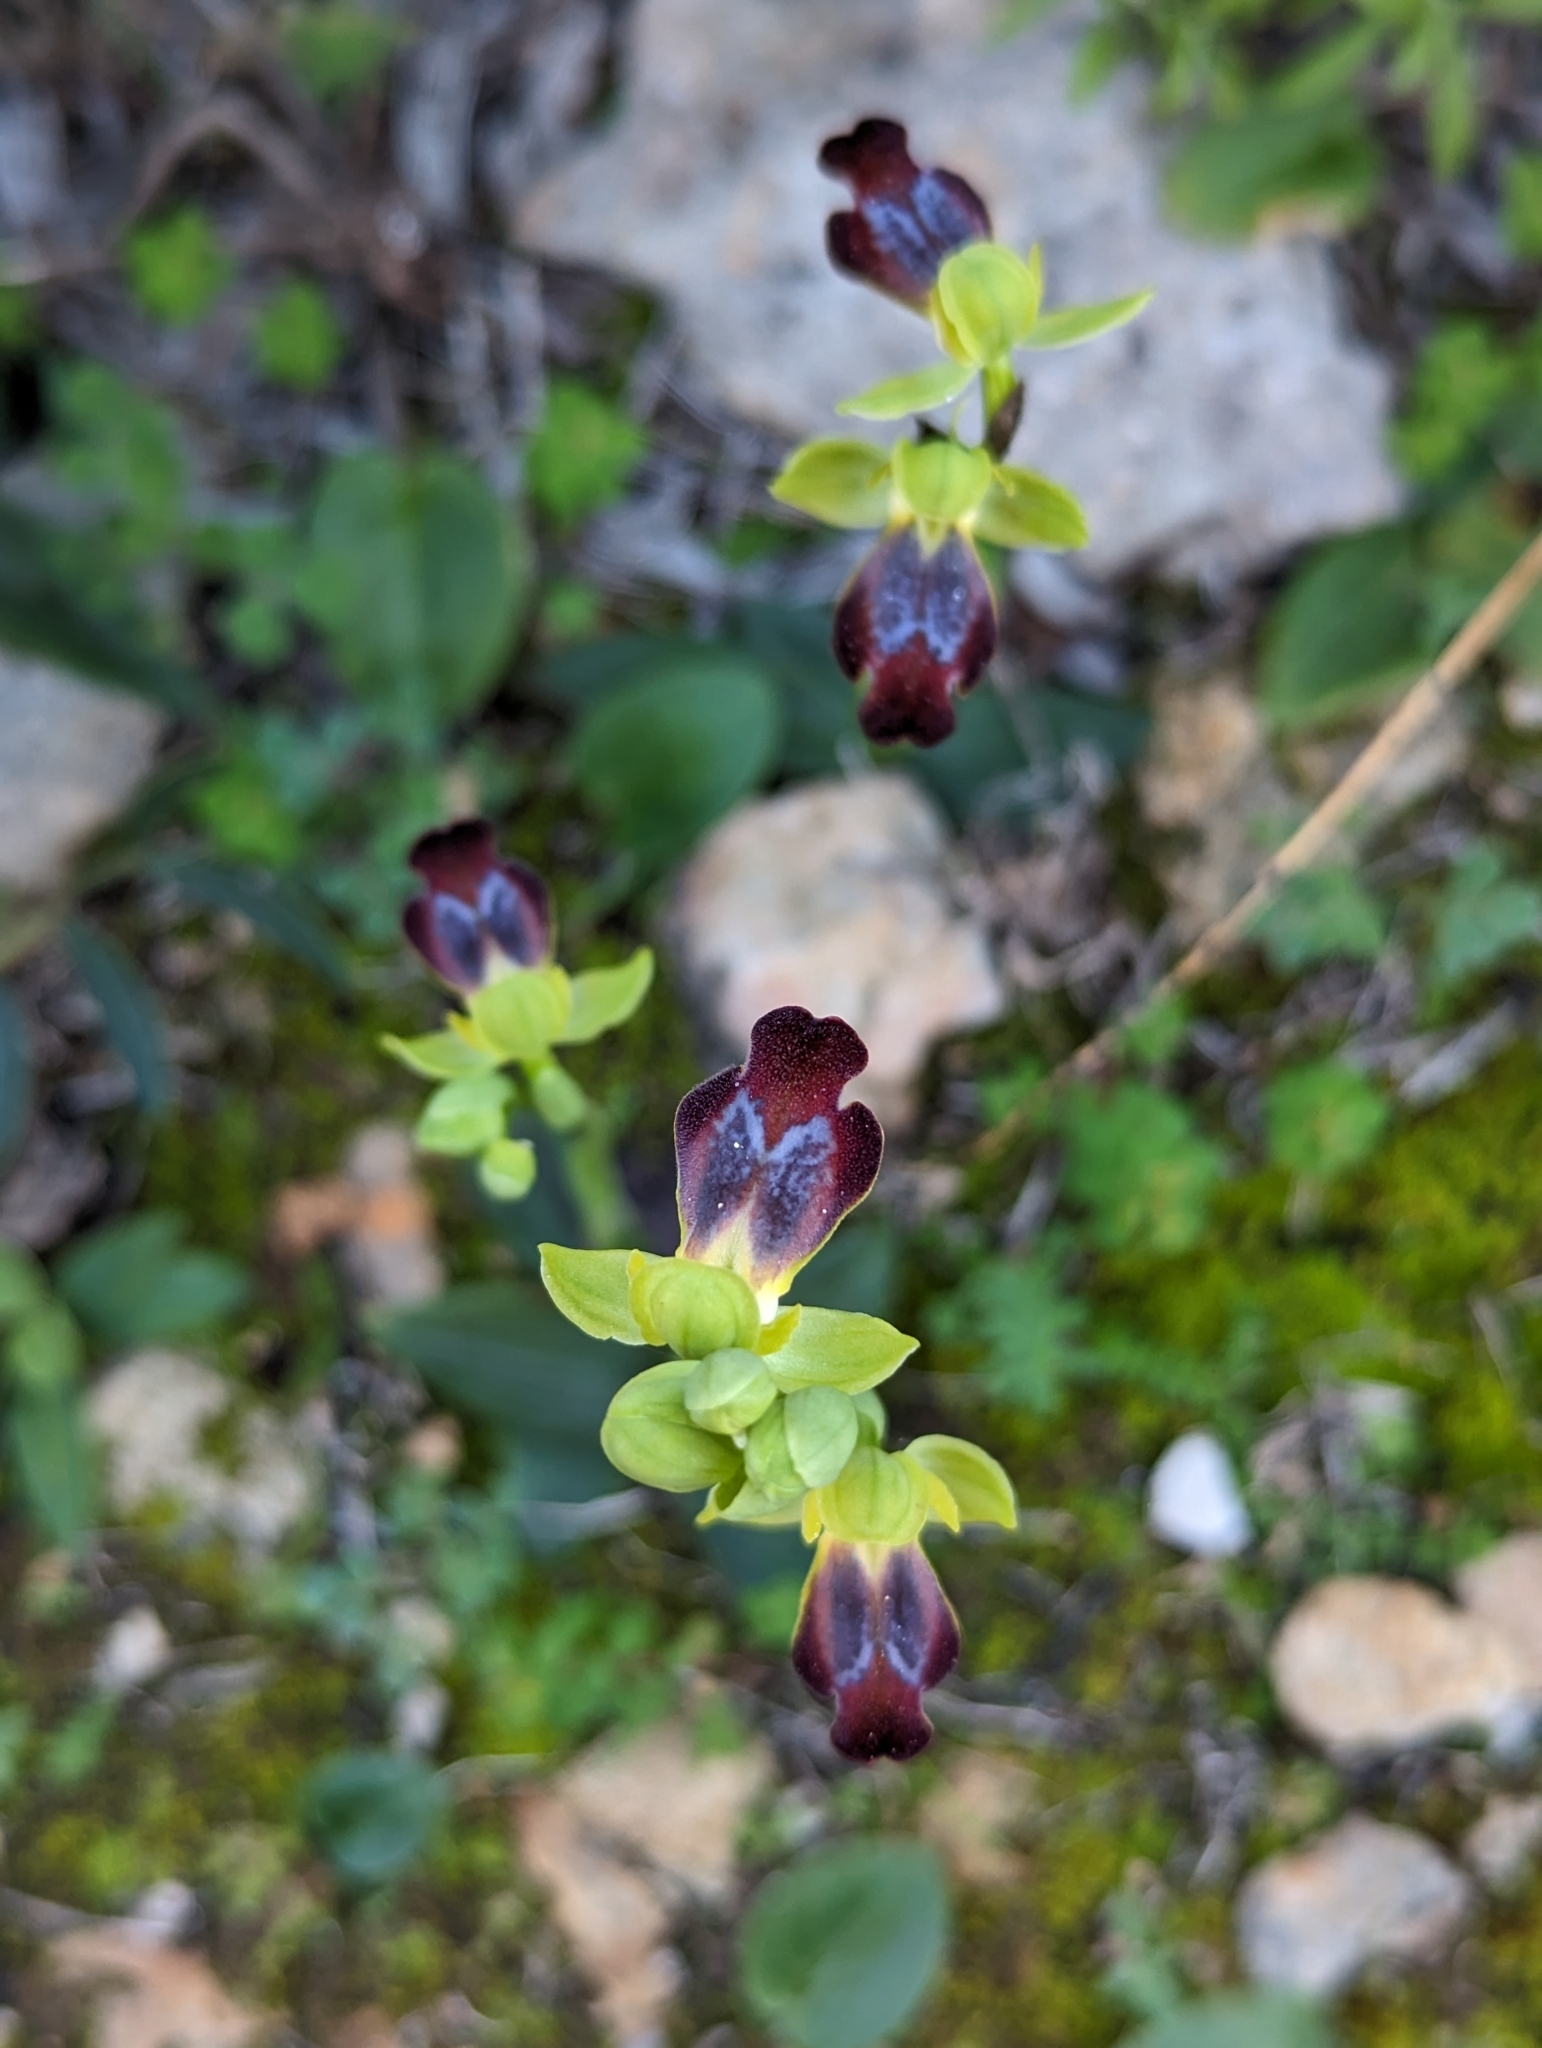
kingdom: Plantae
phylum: Tracheophyta
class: Liliopsida
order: Asparagales
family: Orchidaceae
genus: Ophrys
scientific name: Ophrys fusca
